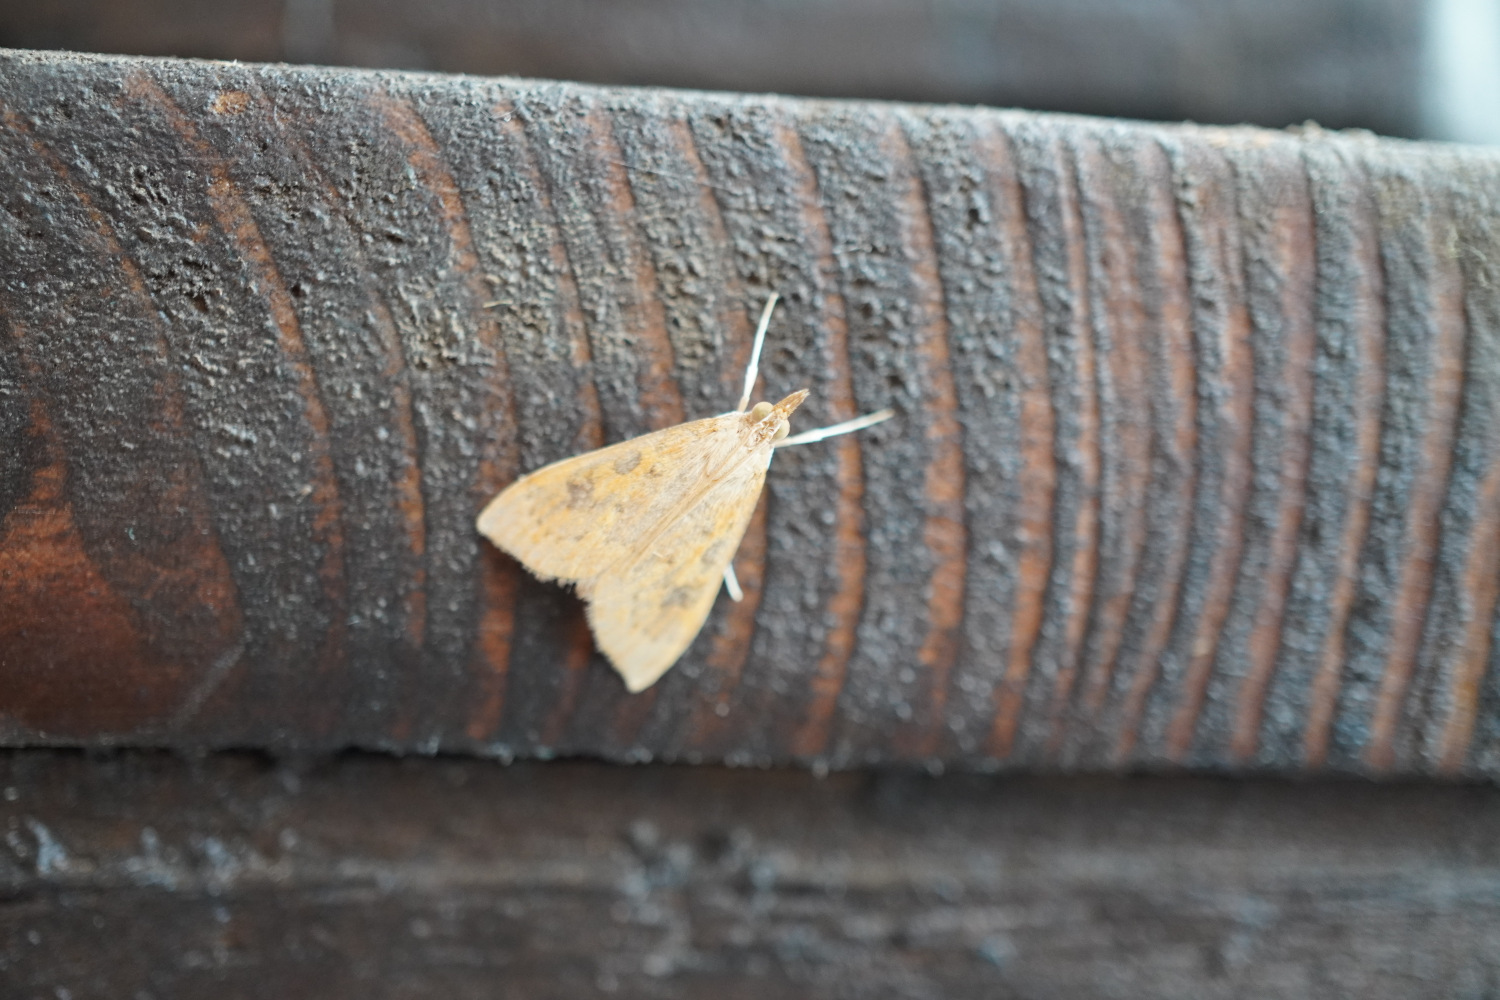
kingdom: Animalia
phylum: Arthropoda
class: Insecta
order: Lepidoptera
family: Crambidae
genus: Udea
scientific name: Udea ferrugalis
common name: Rusty dot
